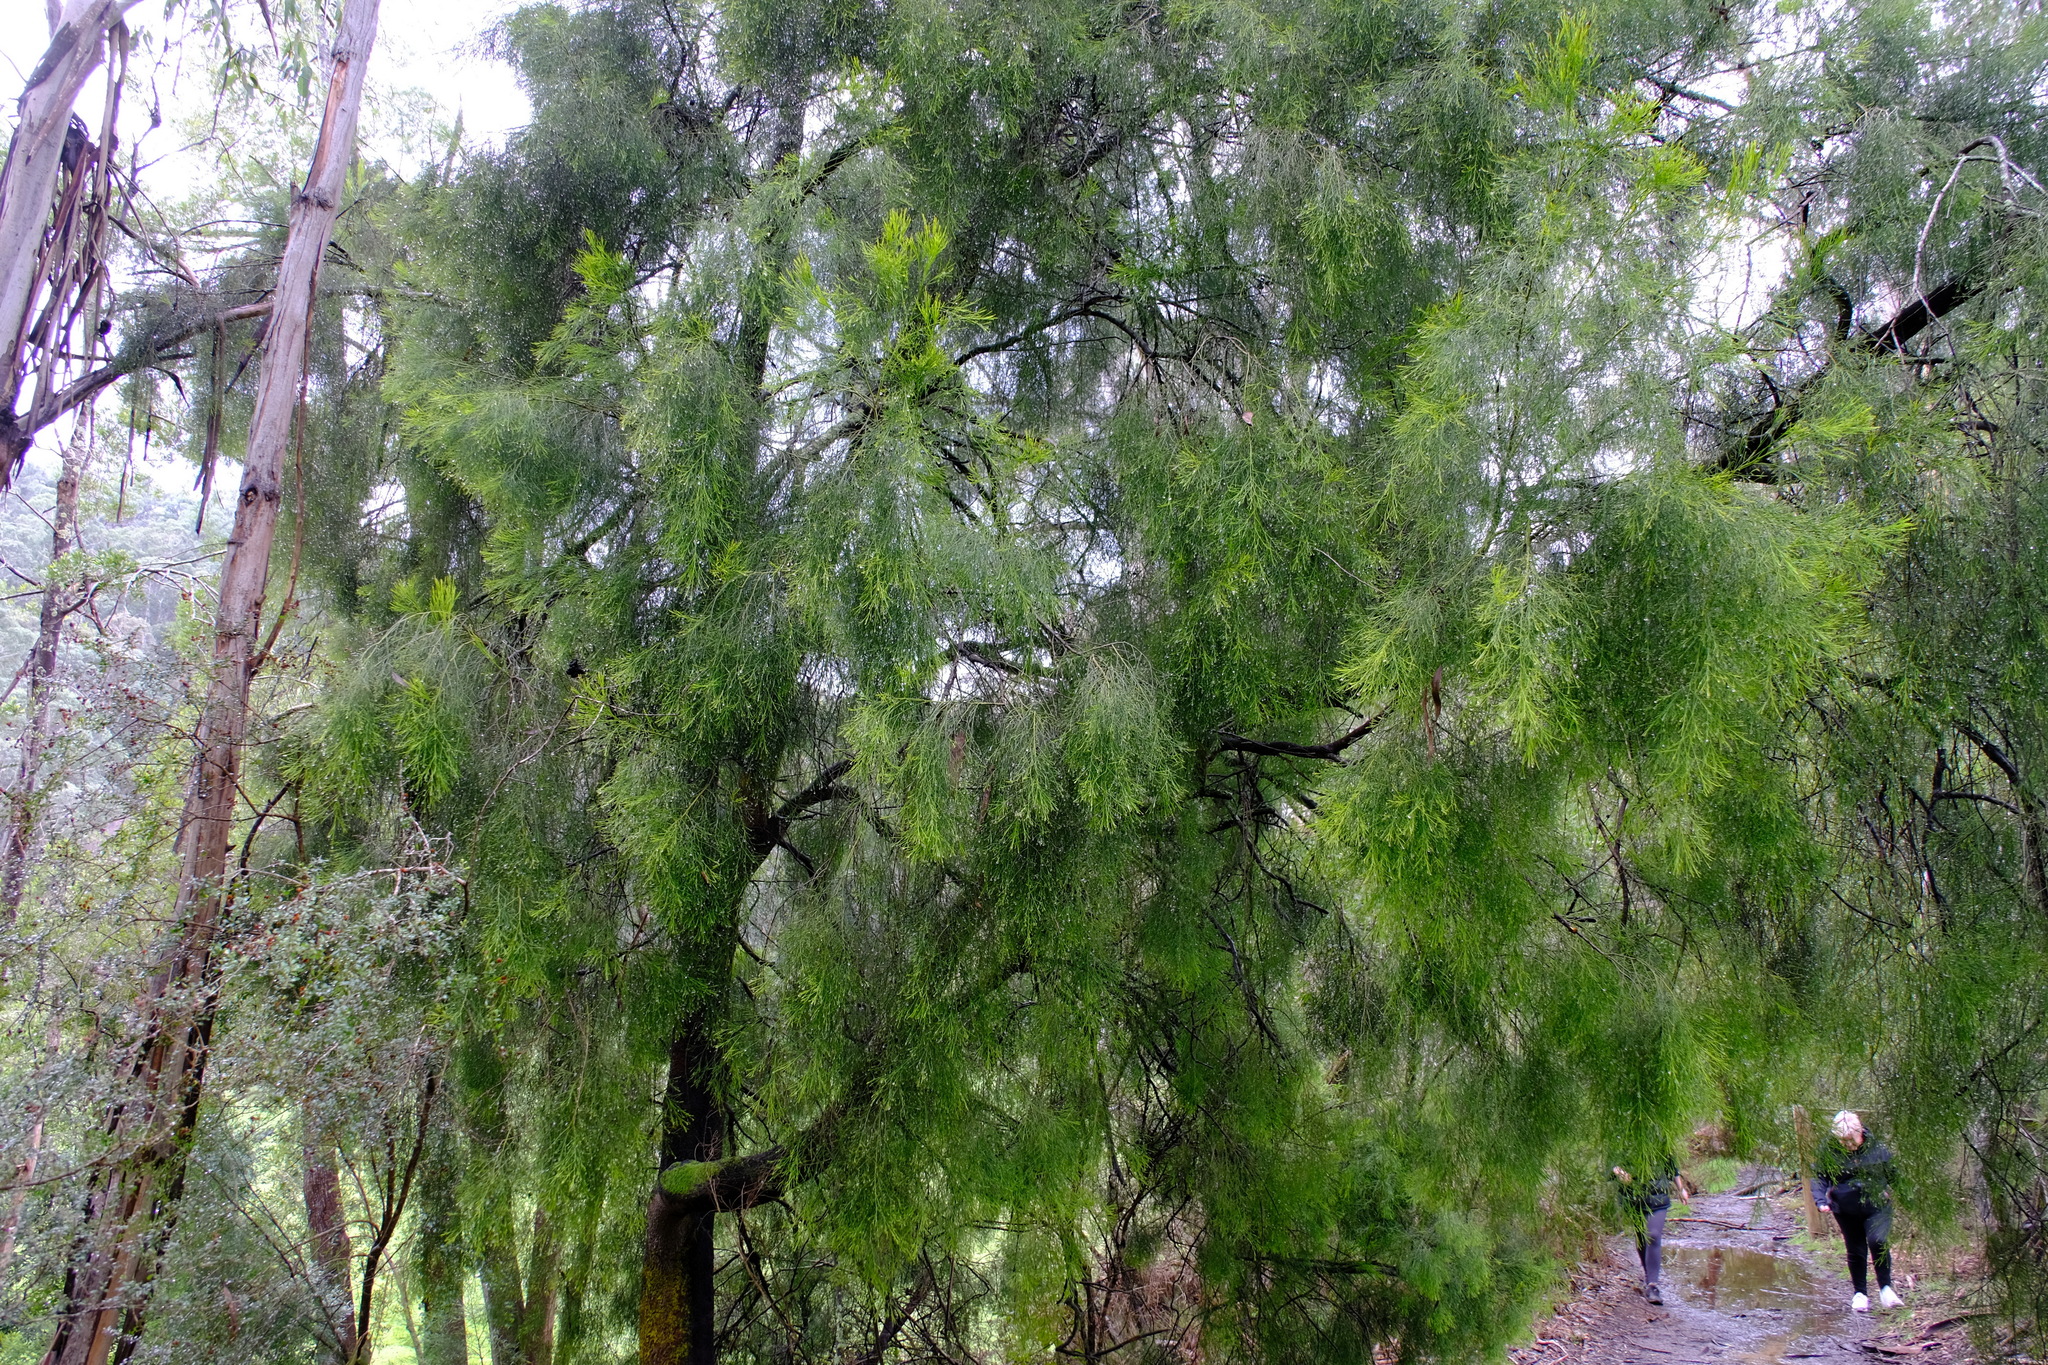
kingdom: Plantae
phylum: Tracheophyta
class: Magnoliopsida
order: Santalales
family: Santalaceae
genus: Exocarpos
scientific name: Exocarpos cupressiformis
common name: Cherry ballart
